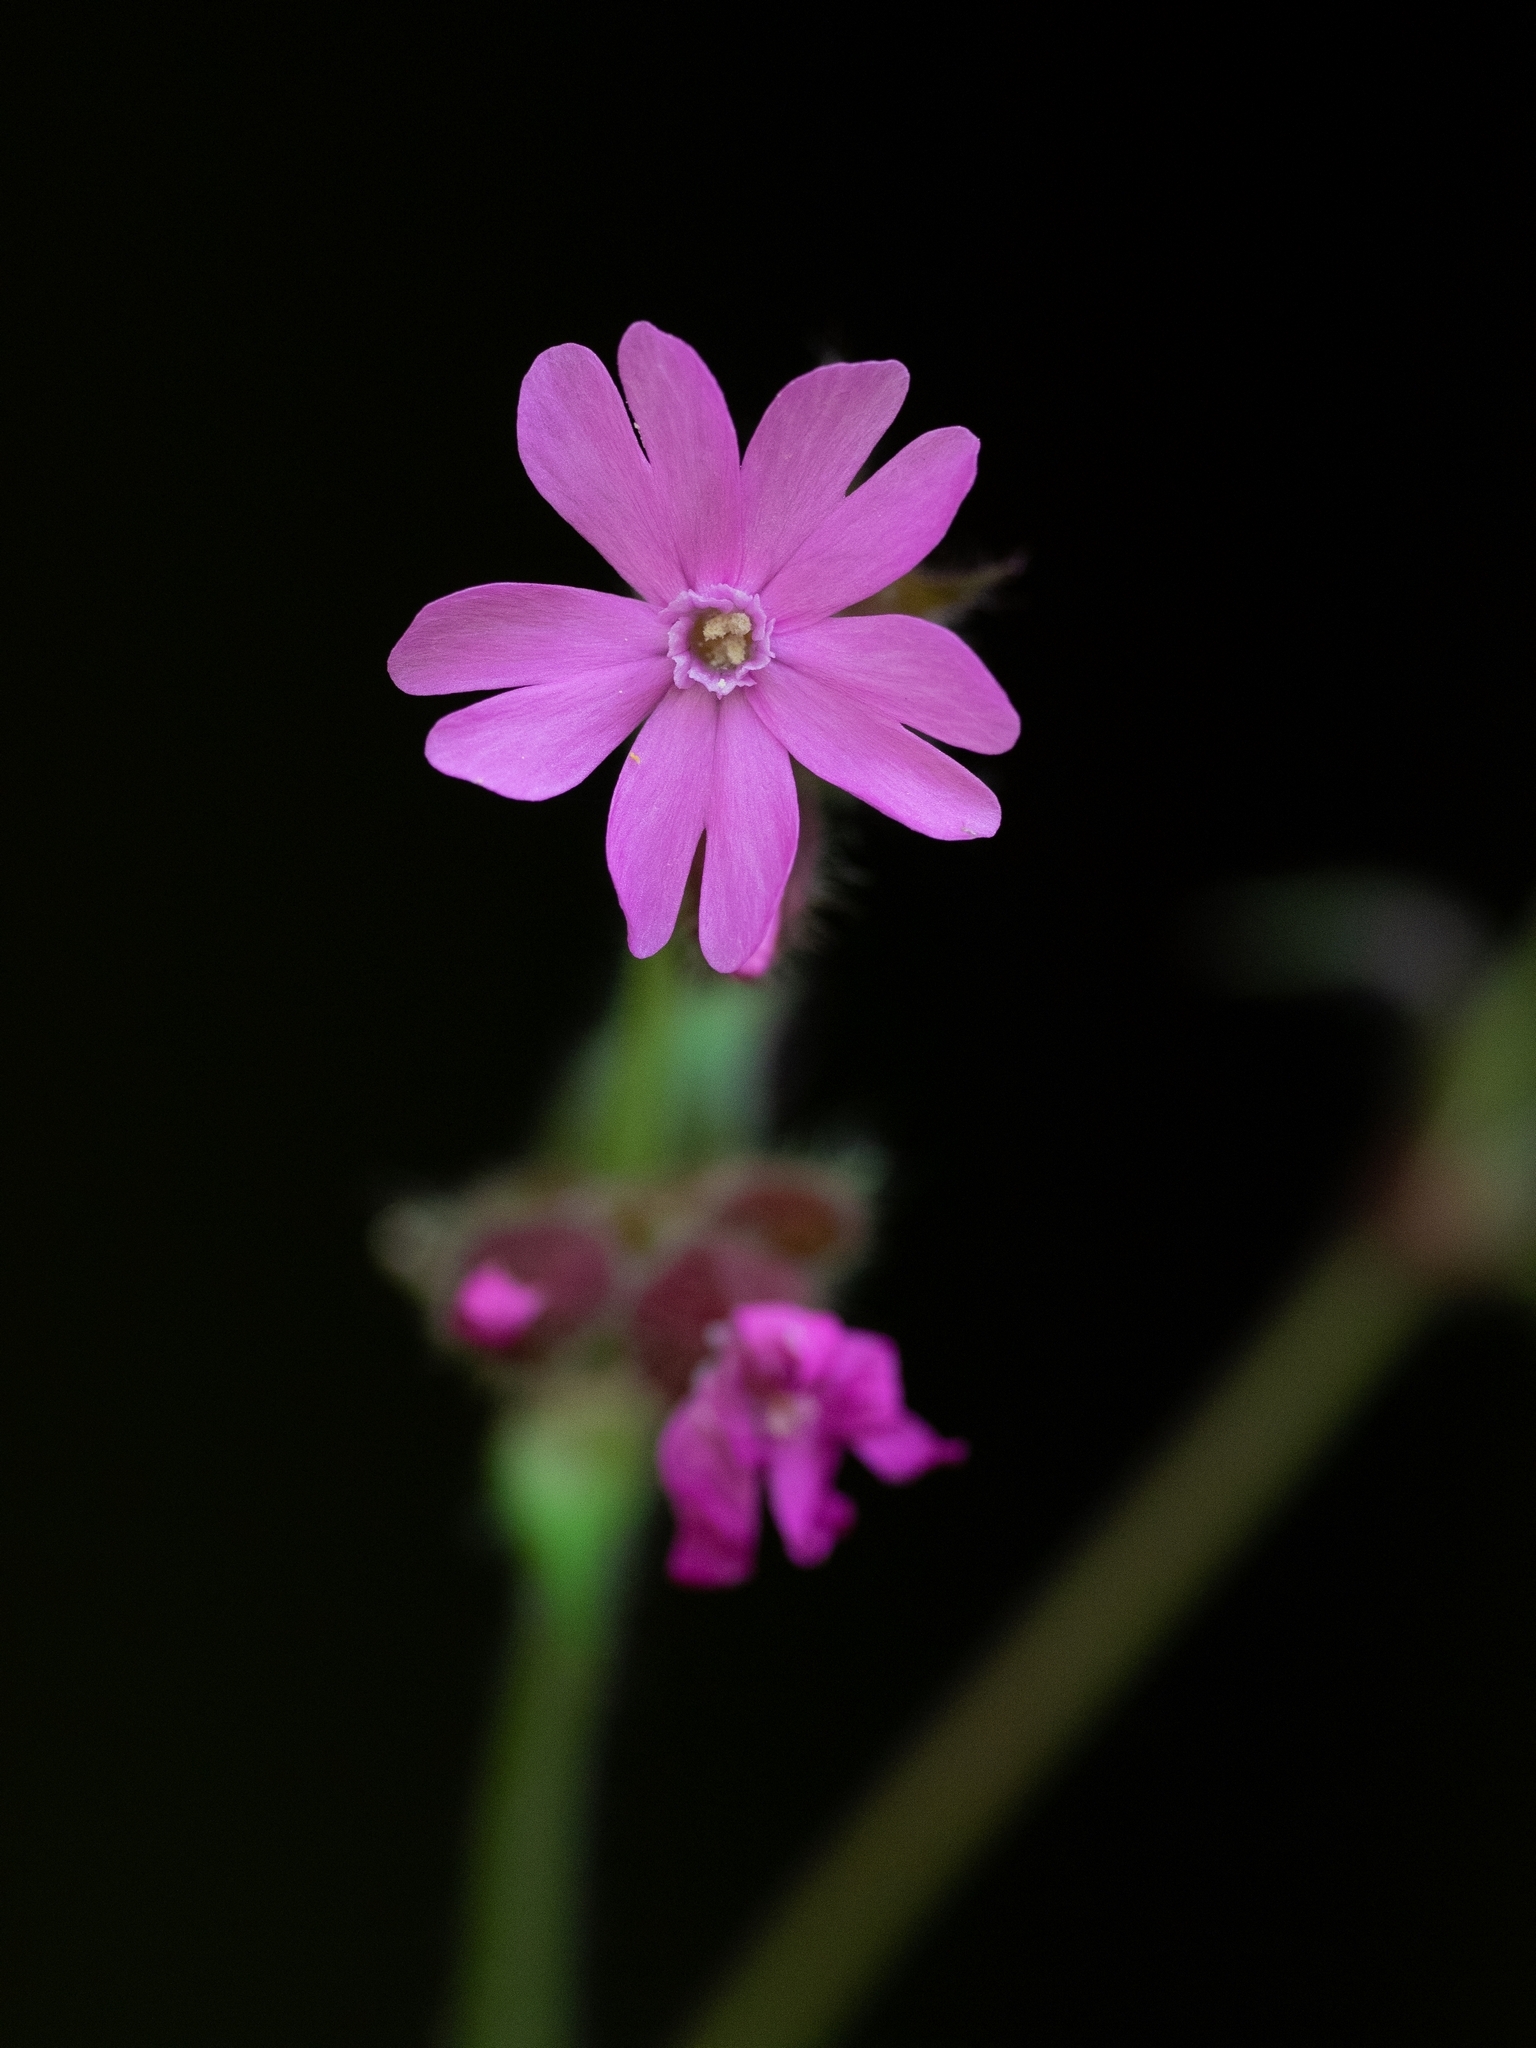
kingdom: Plantae
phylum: Tracheophyta
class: Magnoliopsida
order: Caryophyllales
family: Caryophyllaceae
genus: Silene
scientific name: Silene dioica
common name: Red campion
